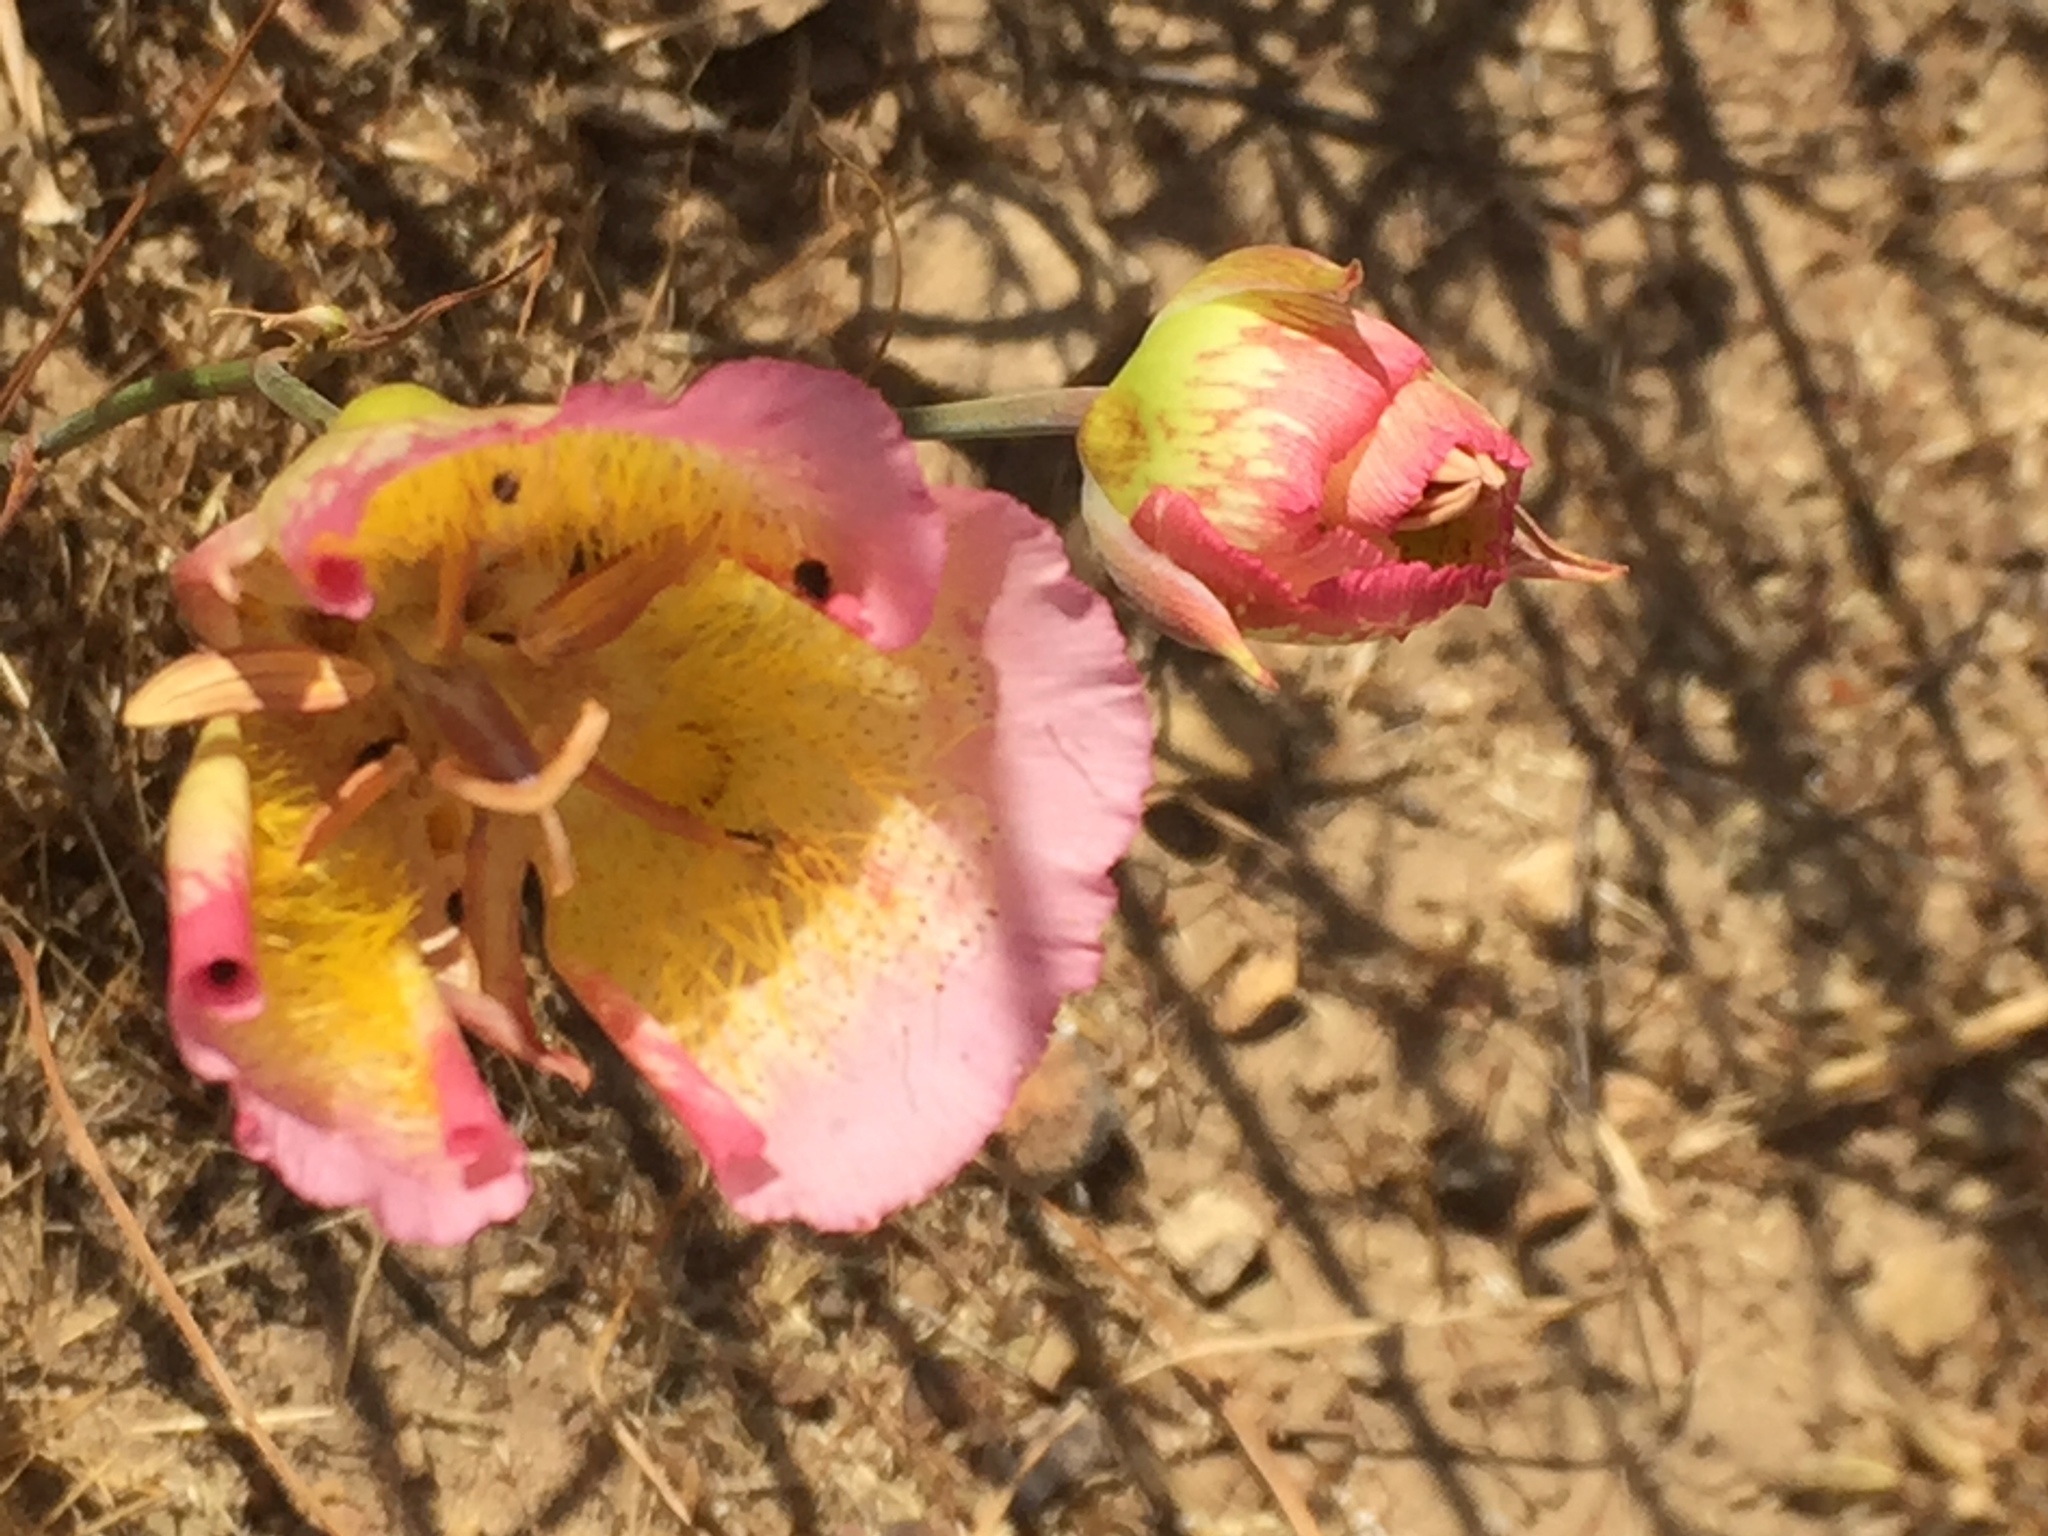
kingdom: Plantae
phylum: Tracheophyta
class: Liliopsida
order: Liliales
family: Liliaceae
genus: Calochortus
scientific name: Calochortus plummerae
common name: Plummer's mariposa-lily
